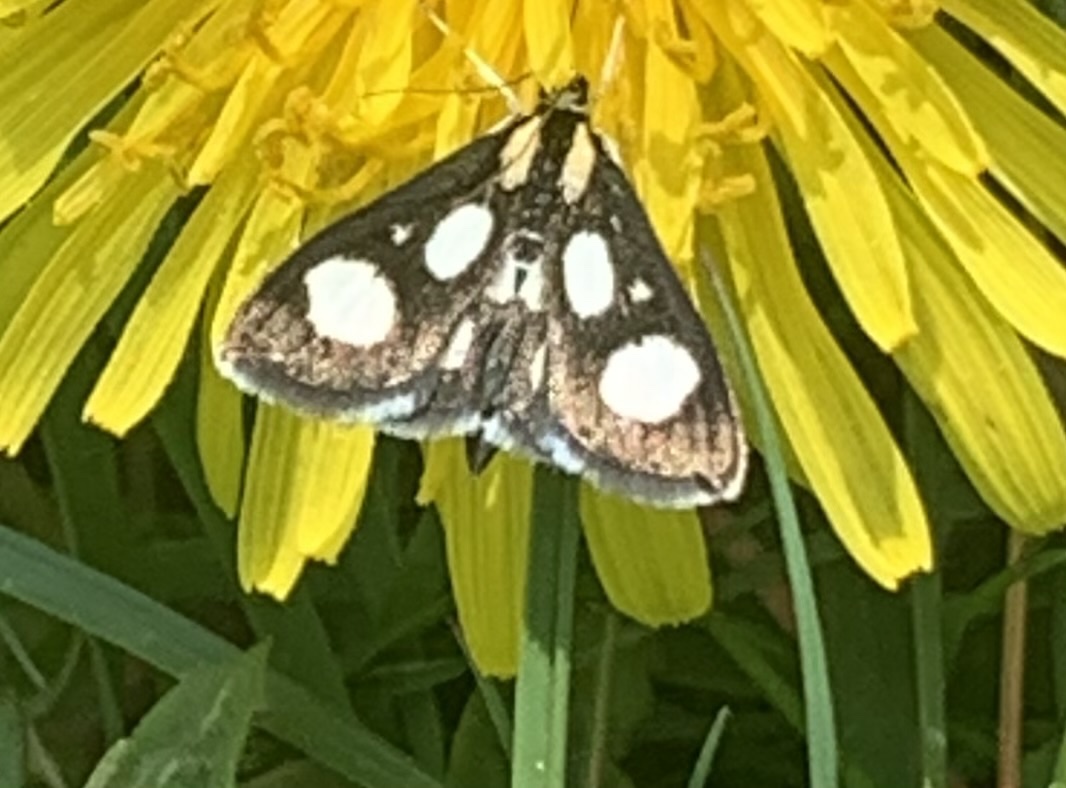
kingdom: Animalia
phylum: Arthropoda
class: Insecta
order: Lepidoptera
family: Crambidae
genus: Anania
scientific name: Anania funebris
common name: White-spotted sable moth
